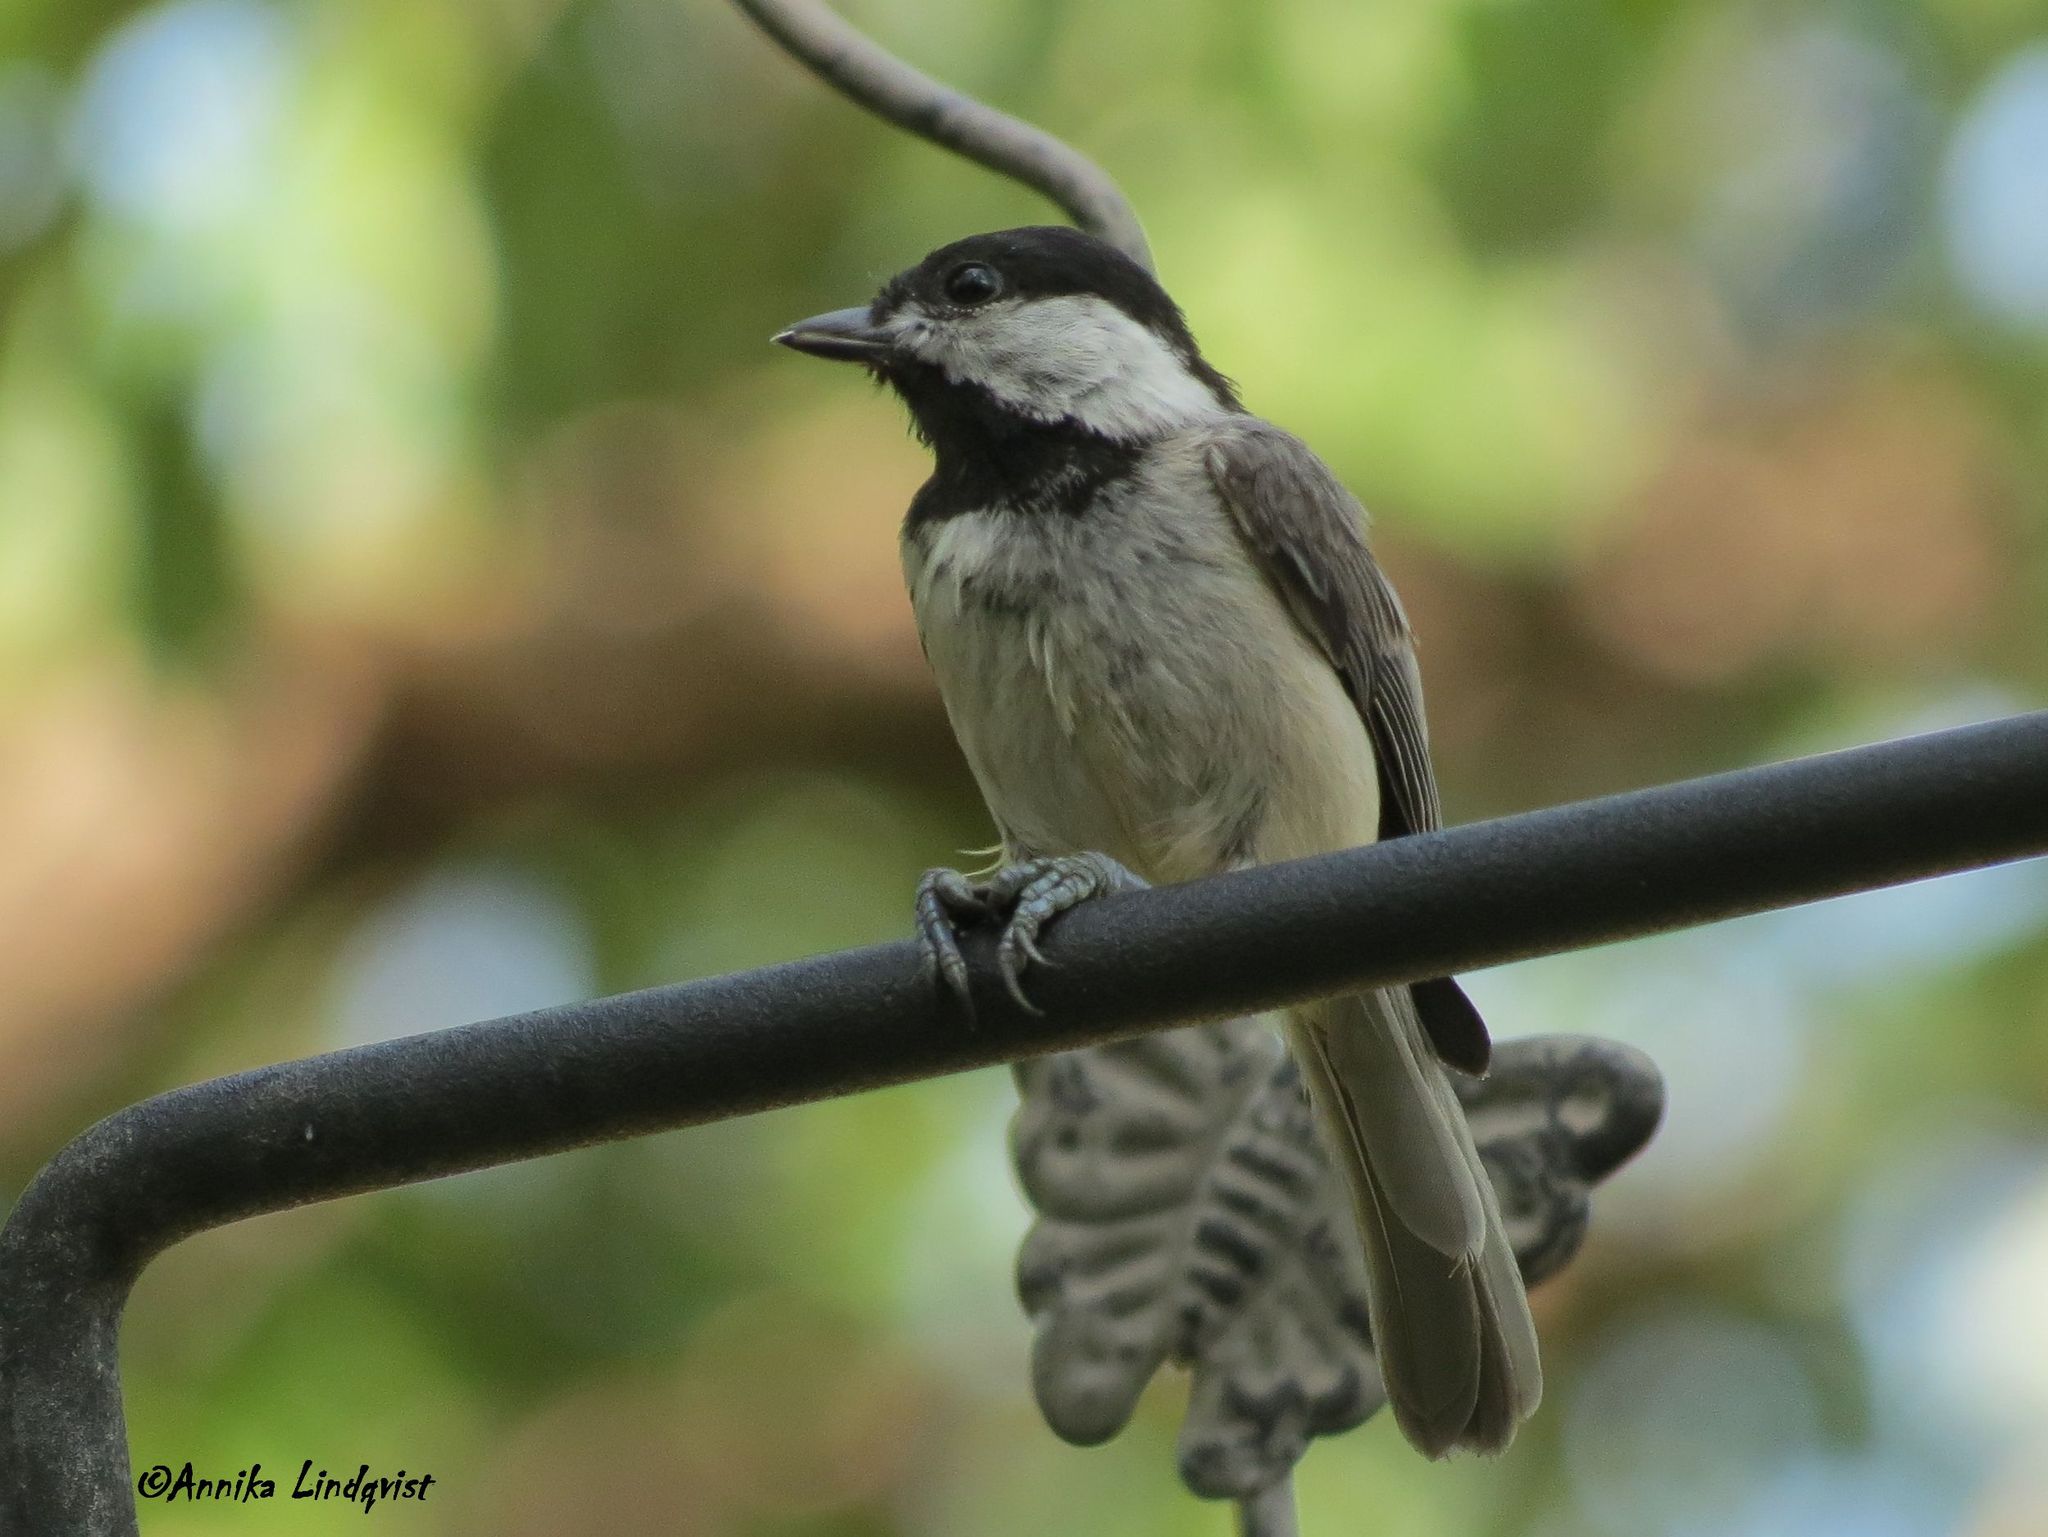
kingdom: Animalia
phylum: Chordata
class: Aves
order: Passeriformes
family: Paridae
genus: Poecile
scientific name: Poecile carolinensis
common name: Carolina chickadee
